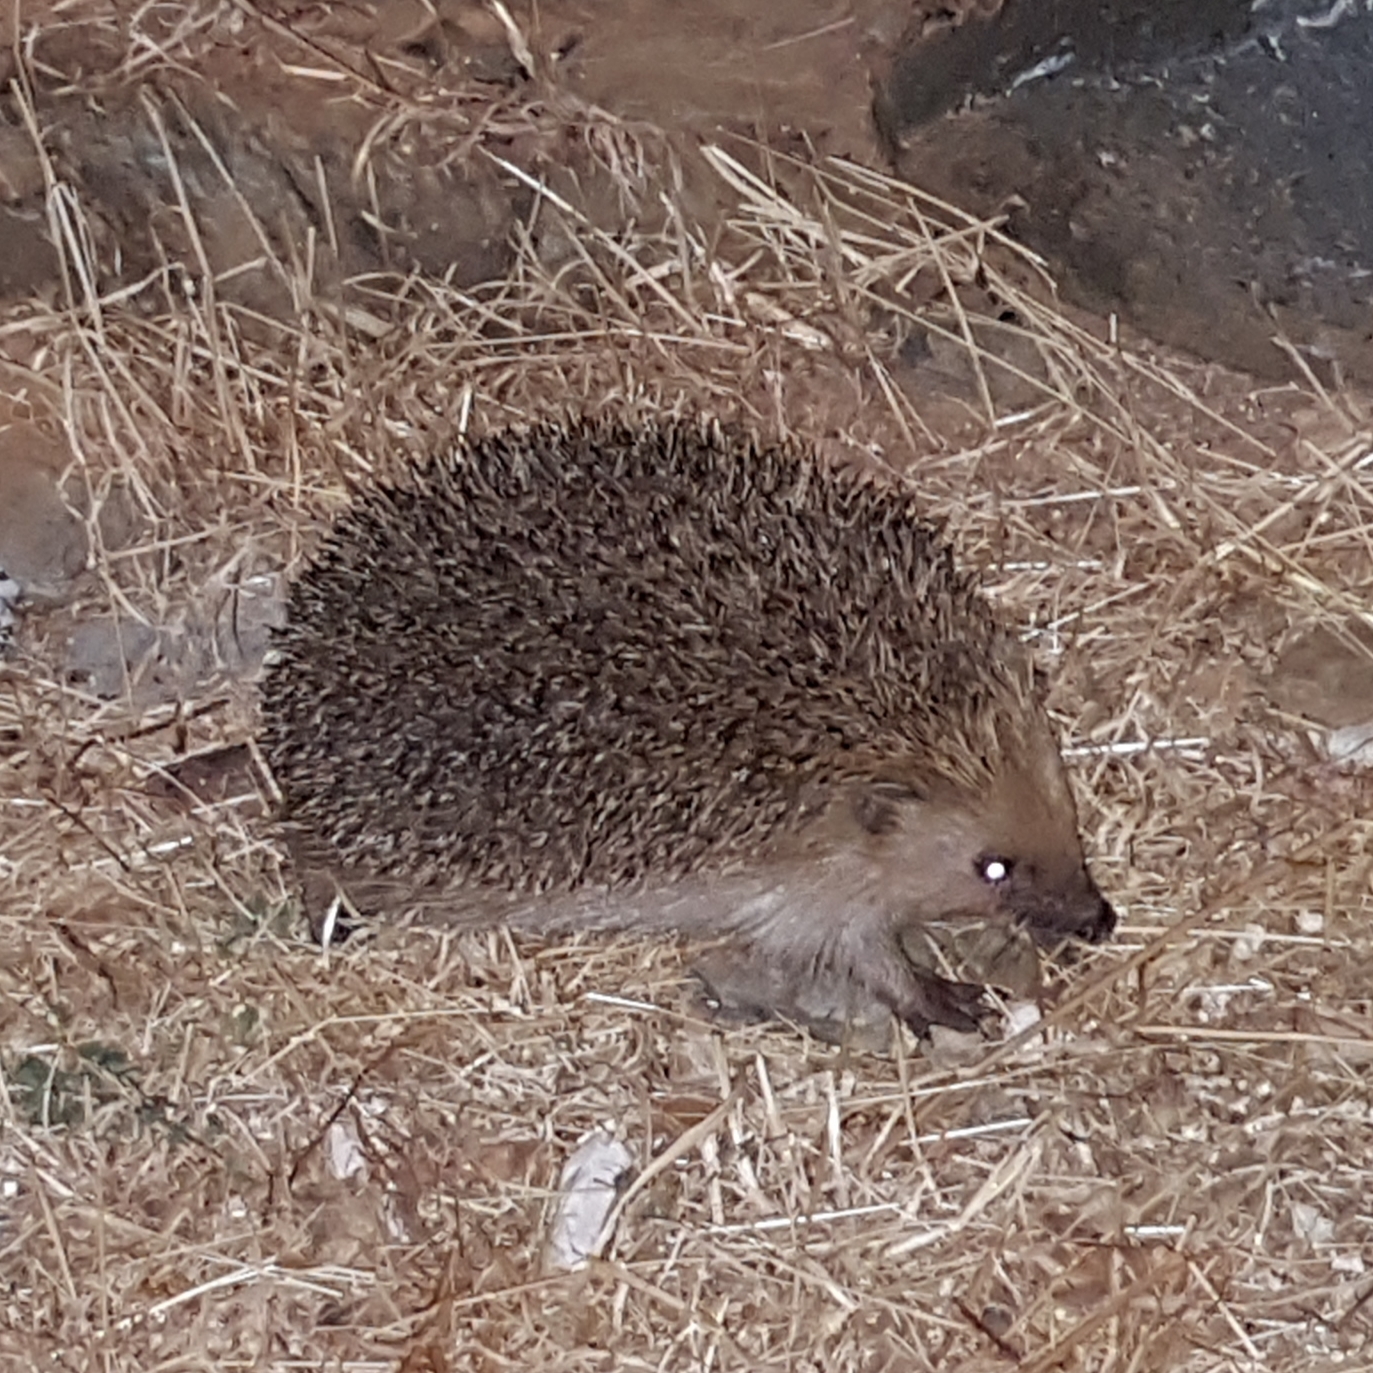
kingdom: Animalia
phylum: Chordata
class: Mammalia
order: Erinaceomorpha
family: Erinaceidae
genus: Erinaceus
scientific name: Erinaceus europaeus
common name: West european hedgehog
